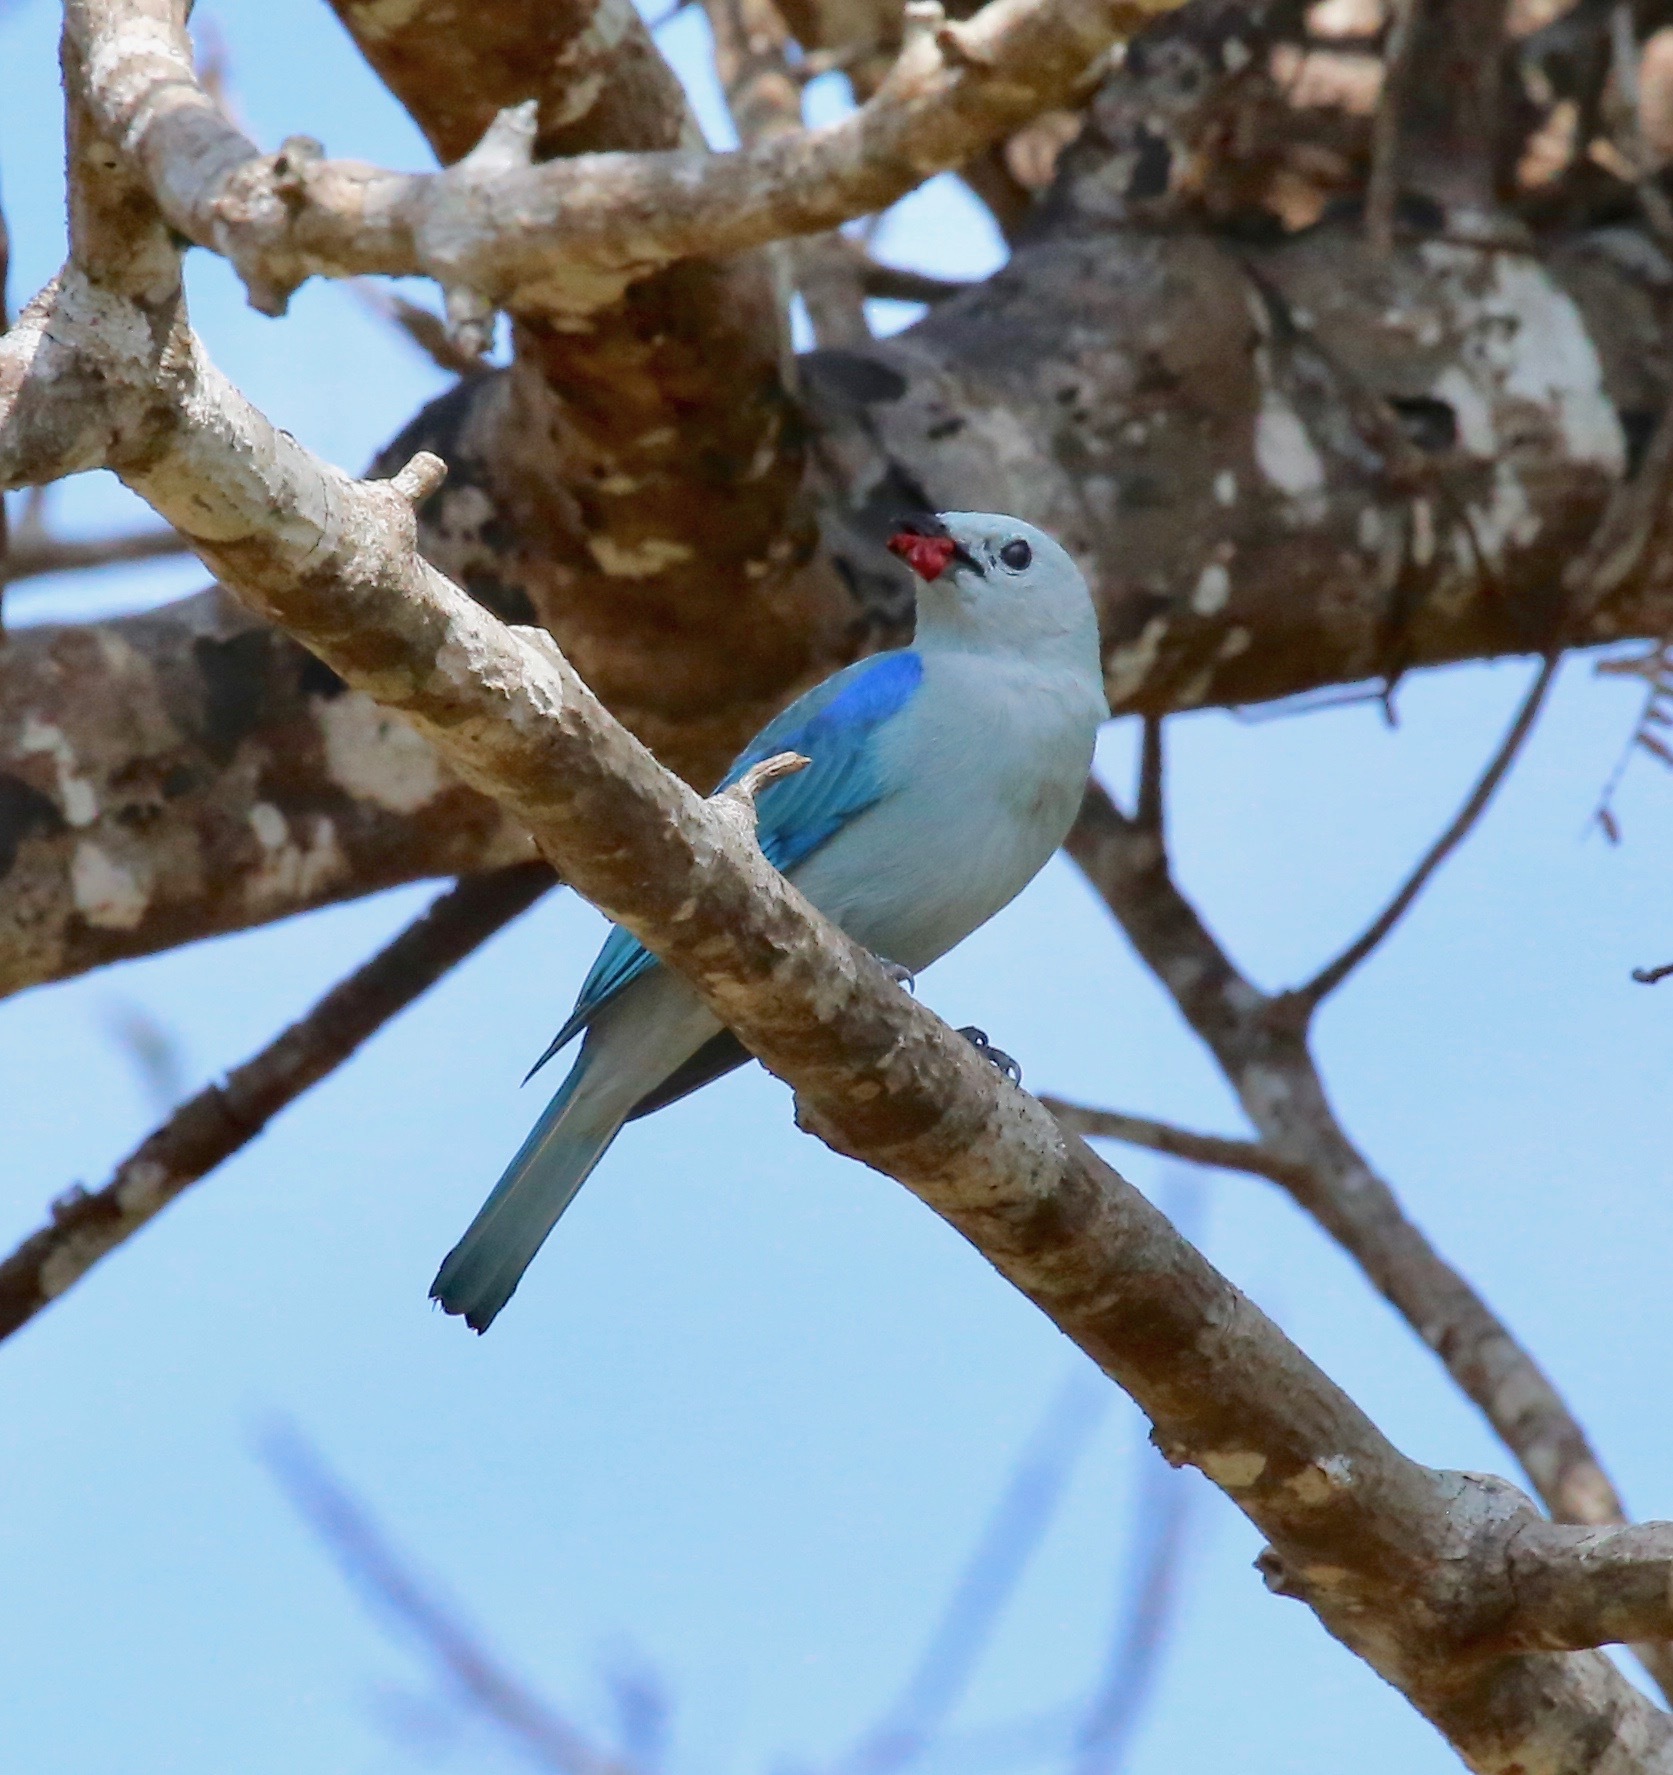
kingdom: Animalia
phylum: Chordata
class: Aves
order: Passeriformes
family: Thraupidae
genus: Thraupis
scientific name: Thraupis episcopus
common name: Blue-grey tanager
